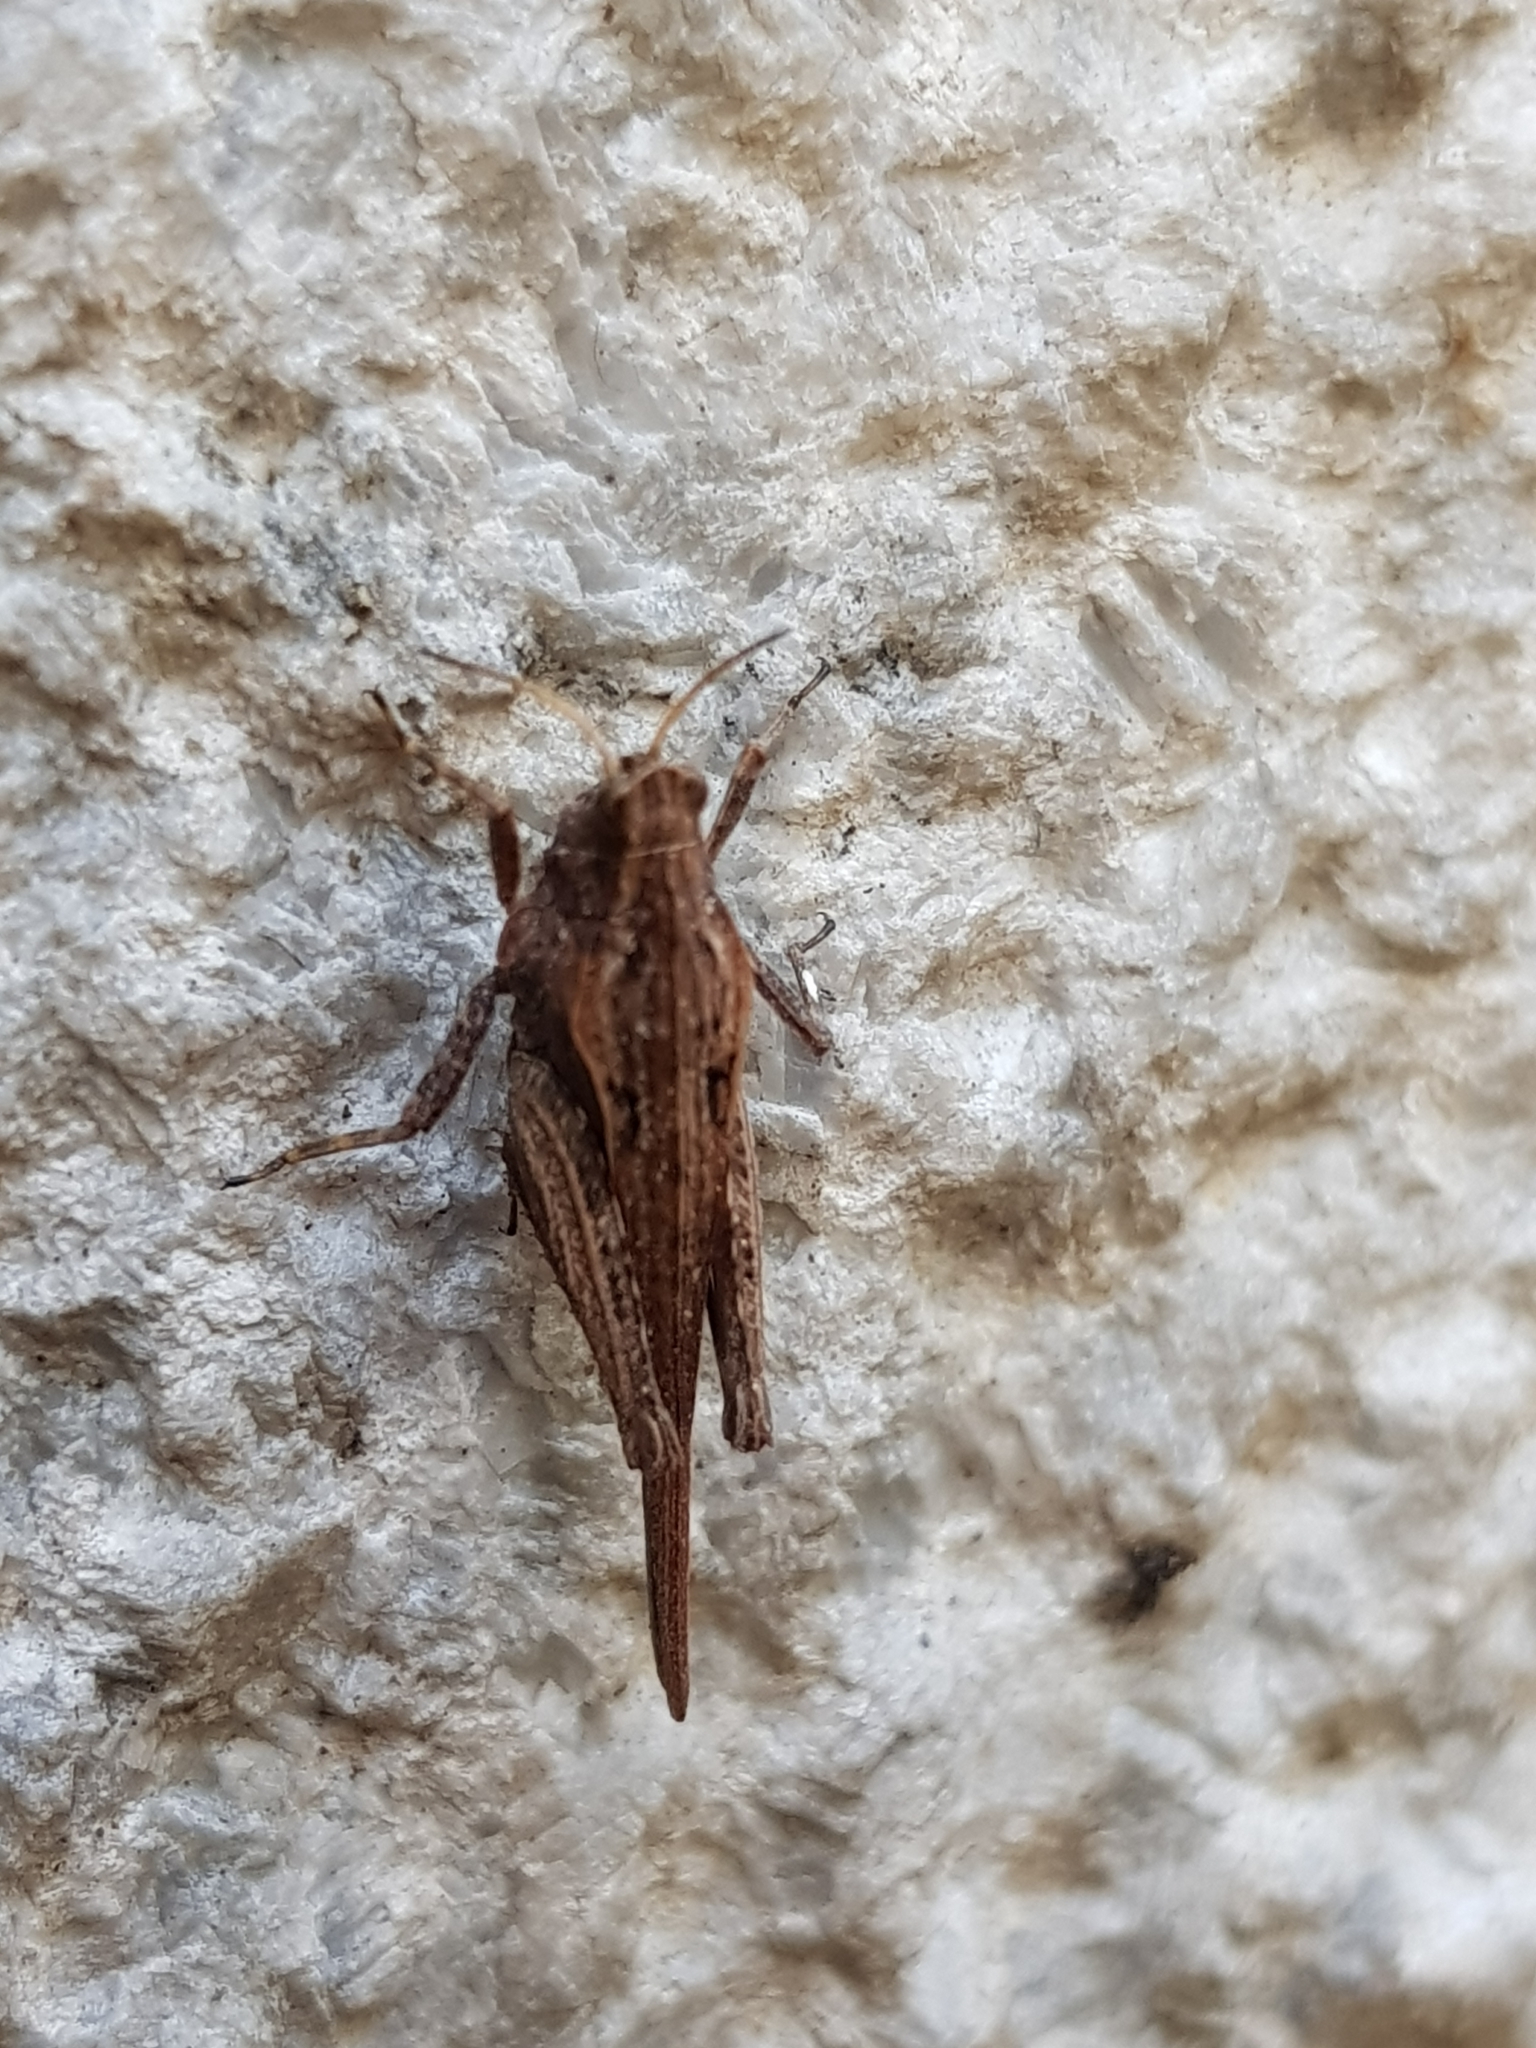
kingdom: Animalia
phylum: Arthropoda
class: Insecta
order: Orthoptera
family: Tetrigidae
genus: Tetrix
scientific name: Tetrix subulata
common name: Slender ground-hopper
